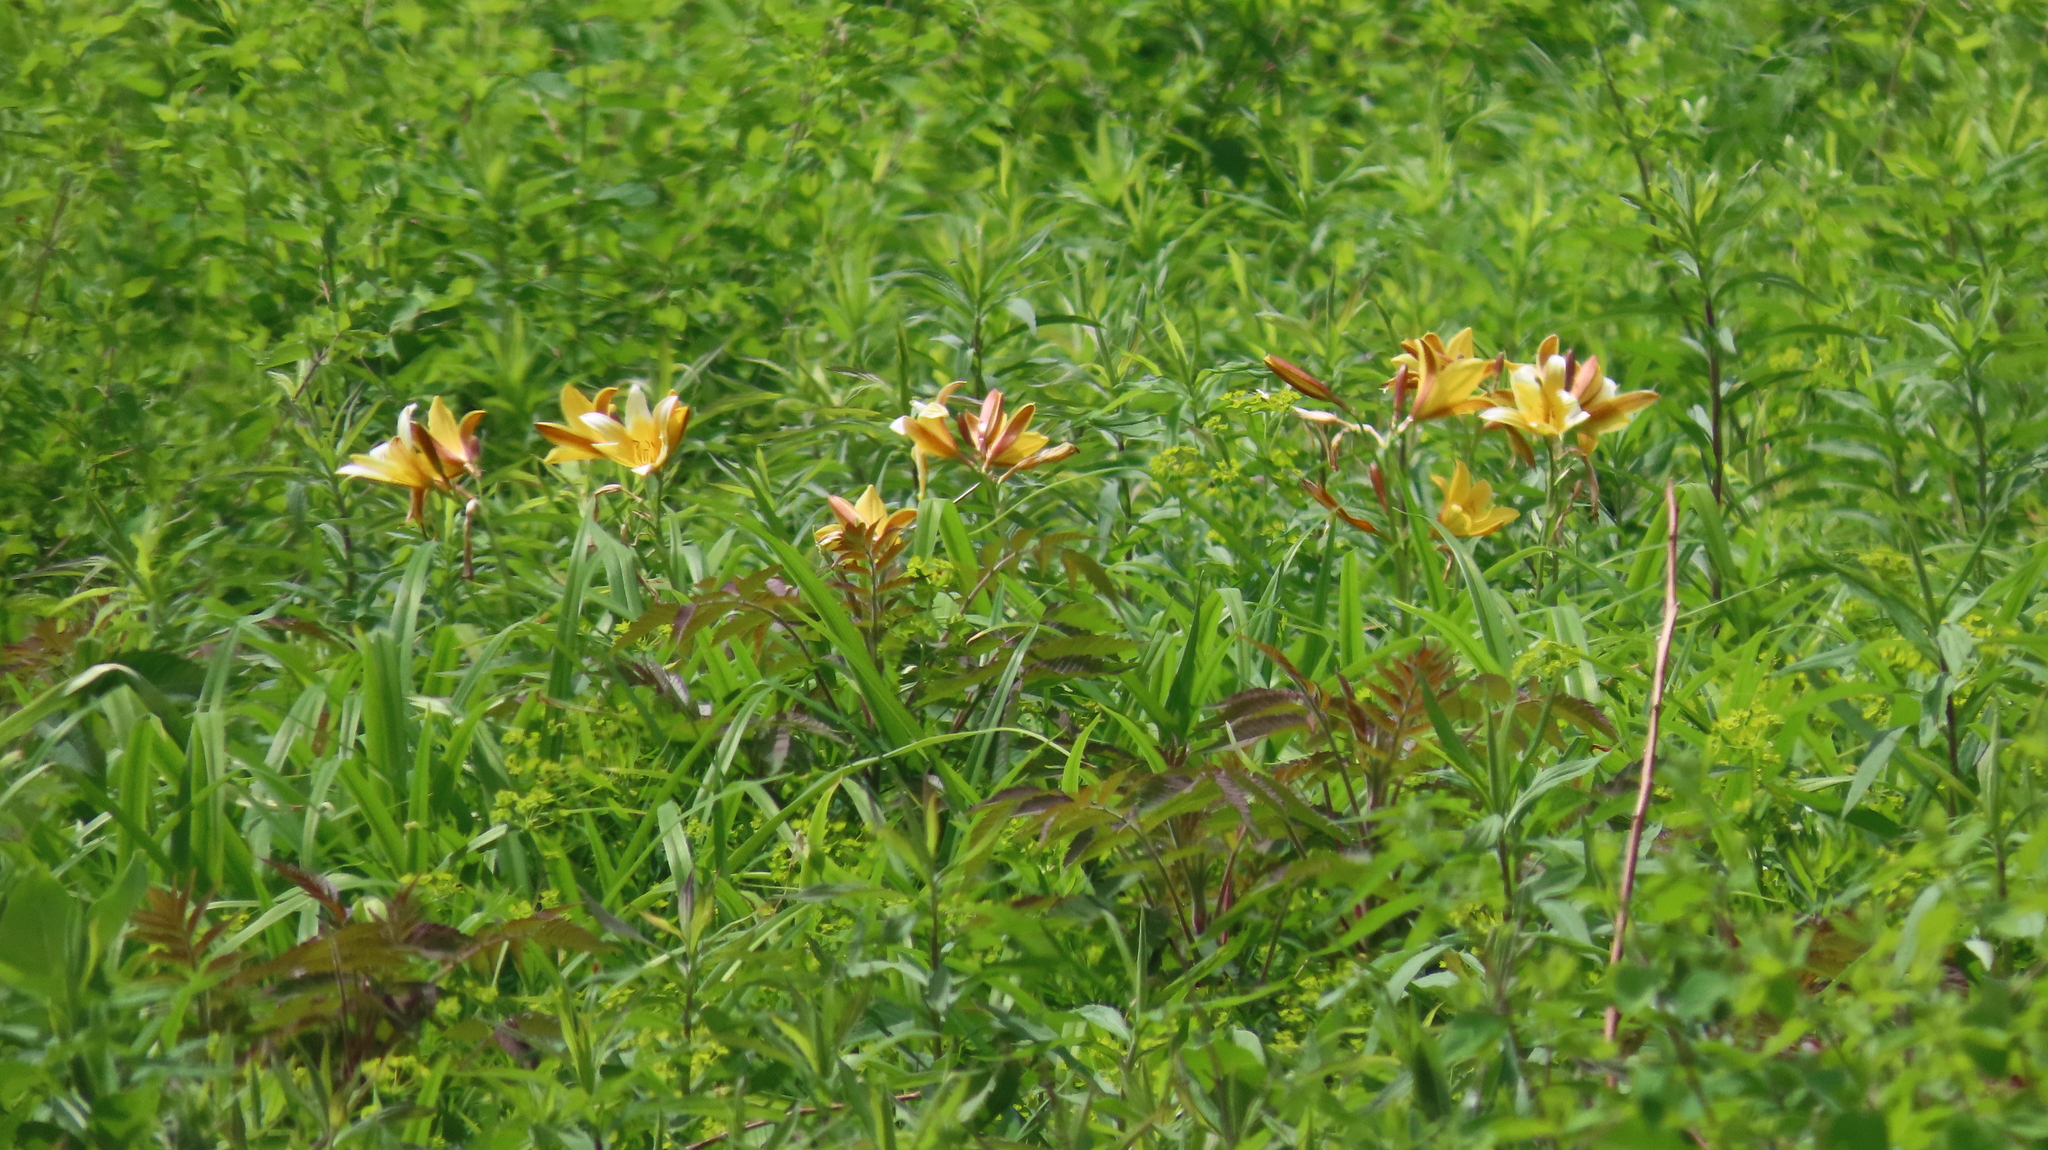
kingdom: Plantae
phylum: Tracheophyta
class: Liliopsida
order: Asparagales
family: Asphodelaceae
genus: Hemerocallis
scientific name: Hemerocallis dumortieri
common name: Dumortier's day-lily
